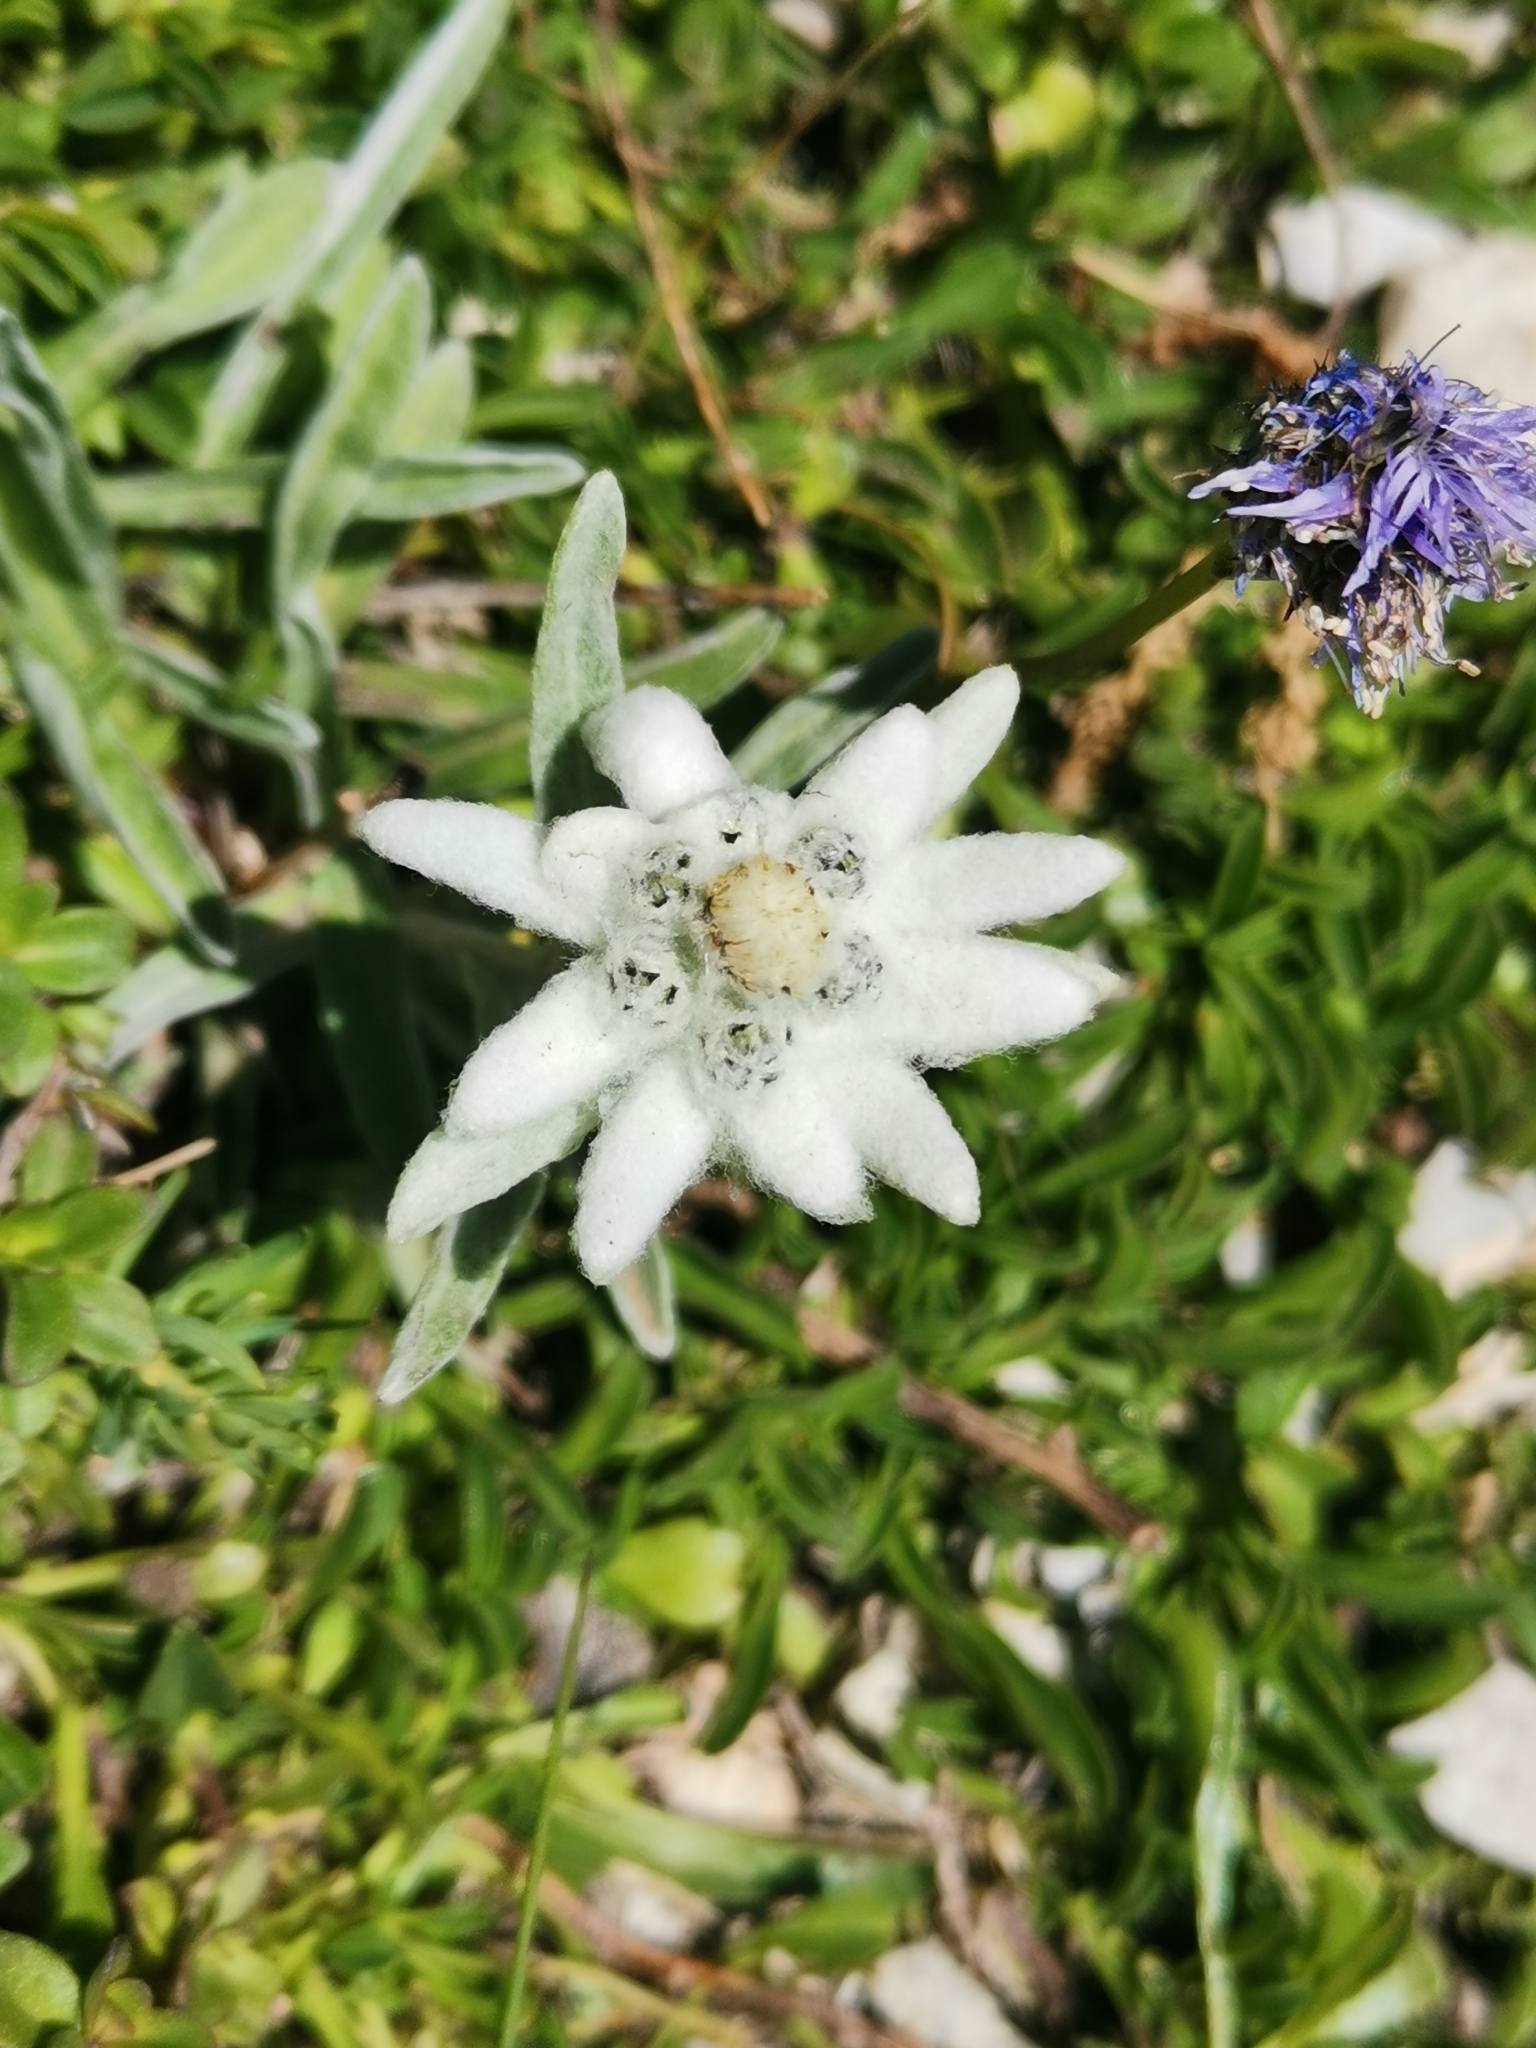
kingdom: Plantae
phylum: Tracheophyta
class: Magnoliopsida
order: Asterales
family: Asteraceae
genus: Leontopodium
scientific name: Leontopodium nivale
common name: Edelweiss
